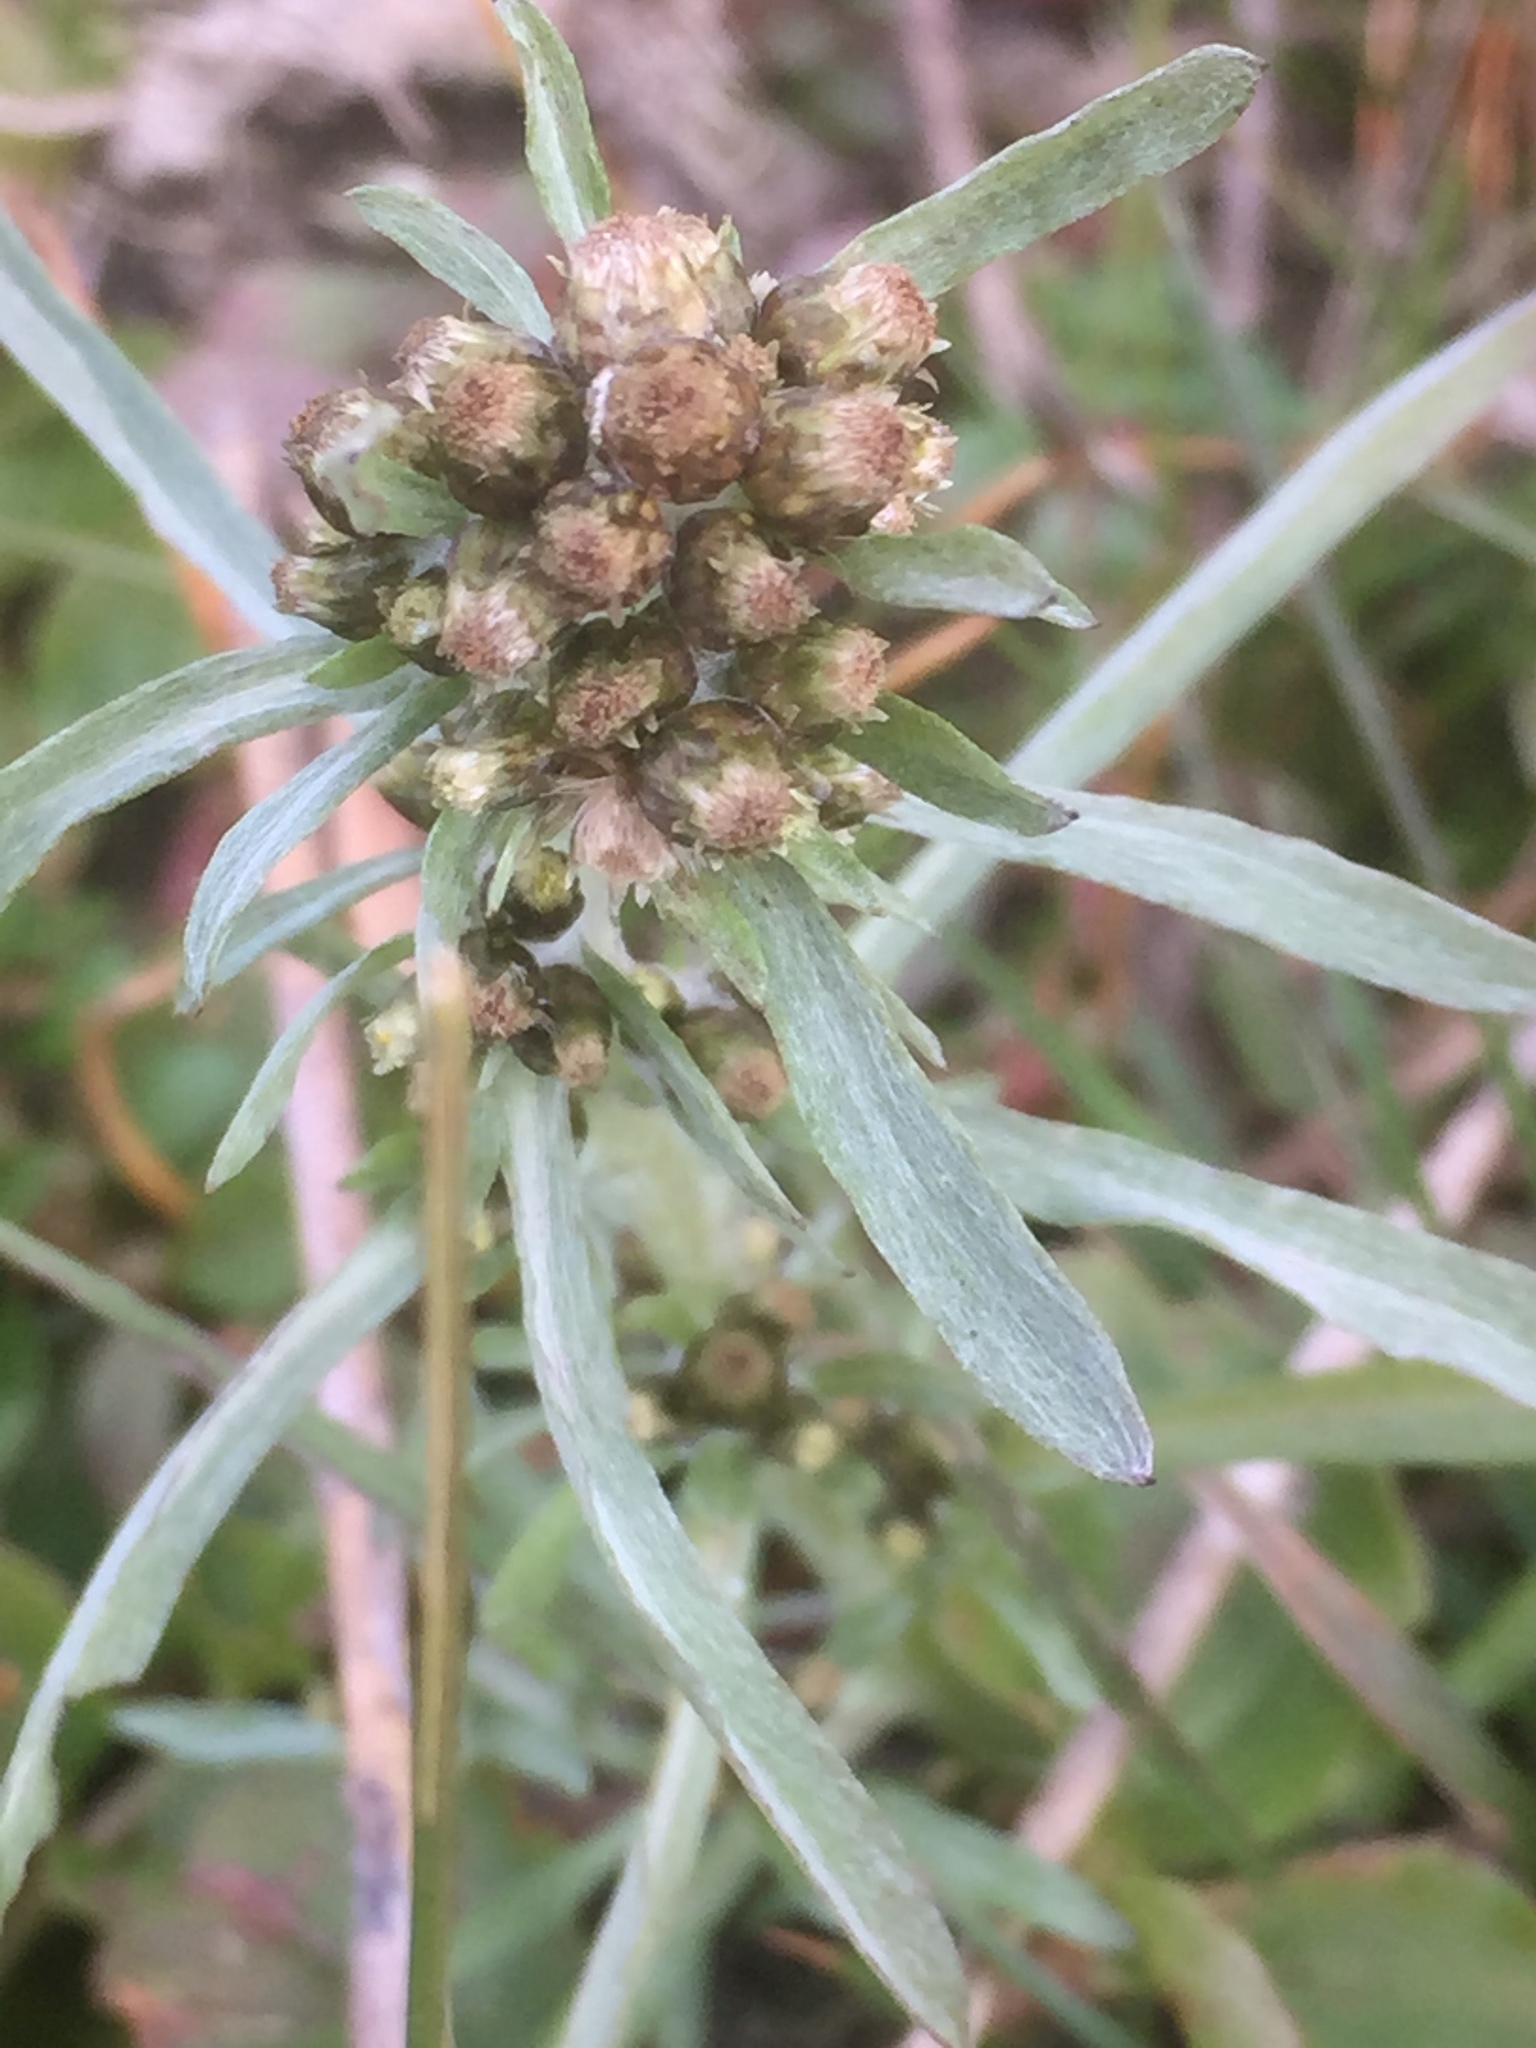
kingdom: Plantae
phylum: Tracheophyta
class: Magnoliopsida
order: Asterales
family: Asteraceae
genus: Gnaphalium
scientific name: Gnaphalium uliginosum
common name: Marsh cudweed
